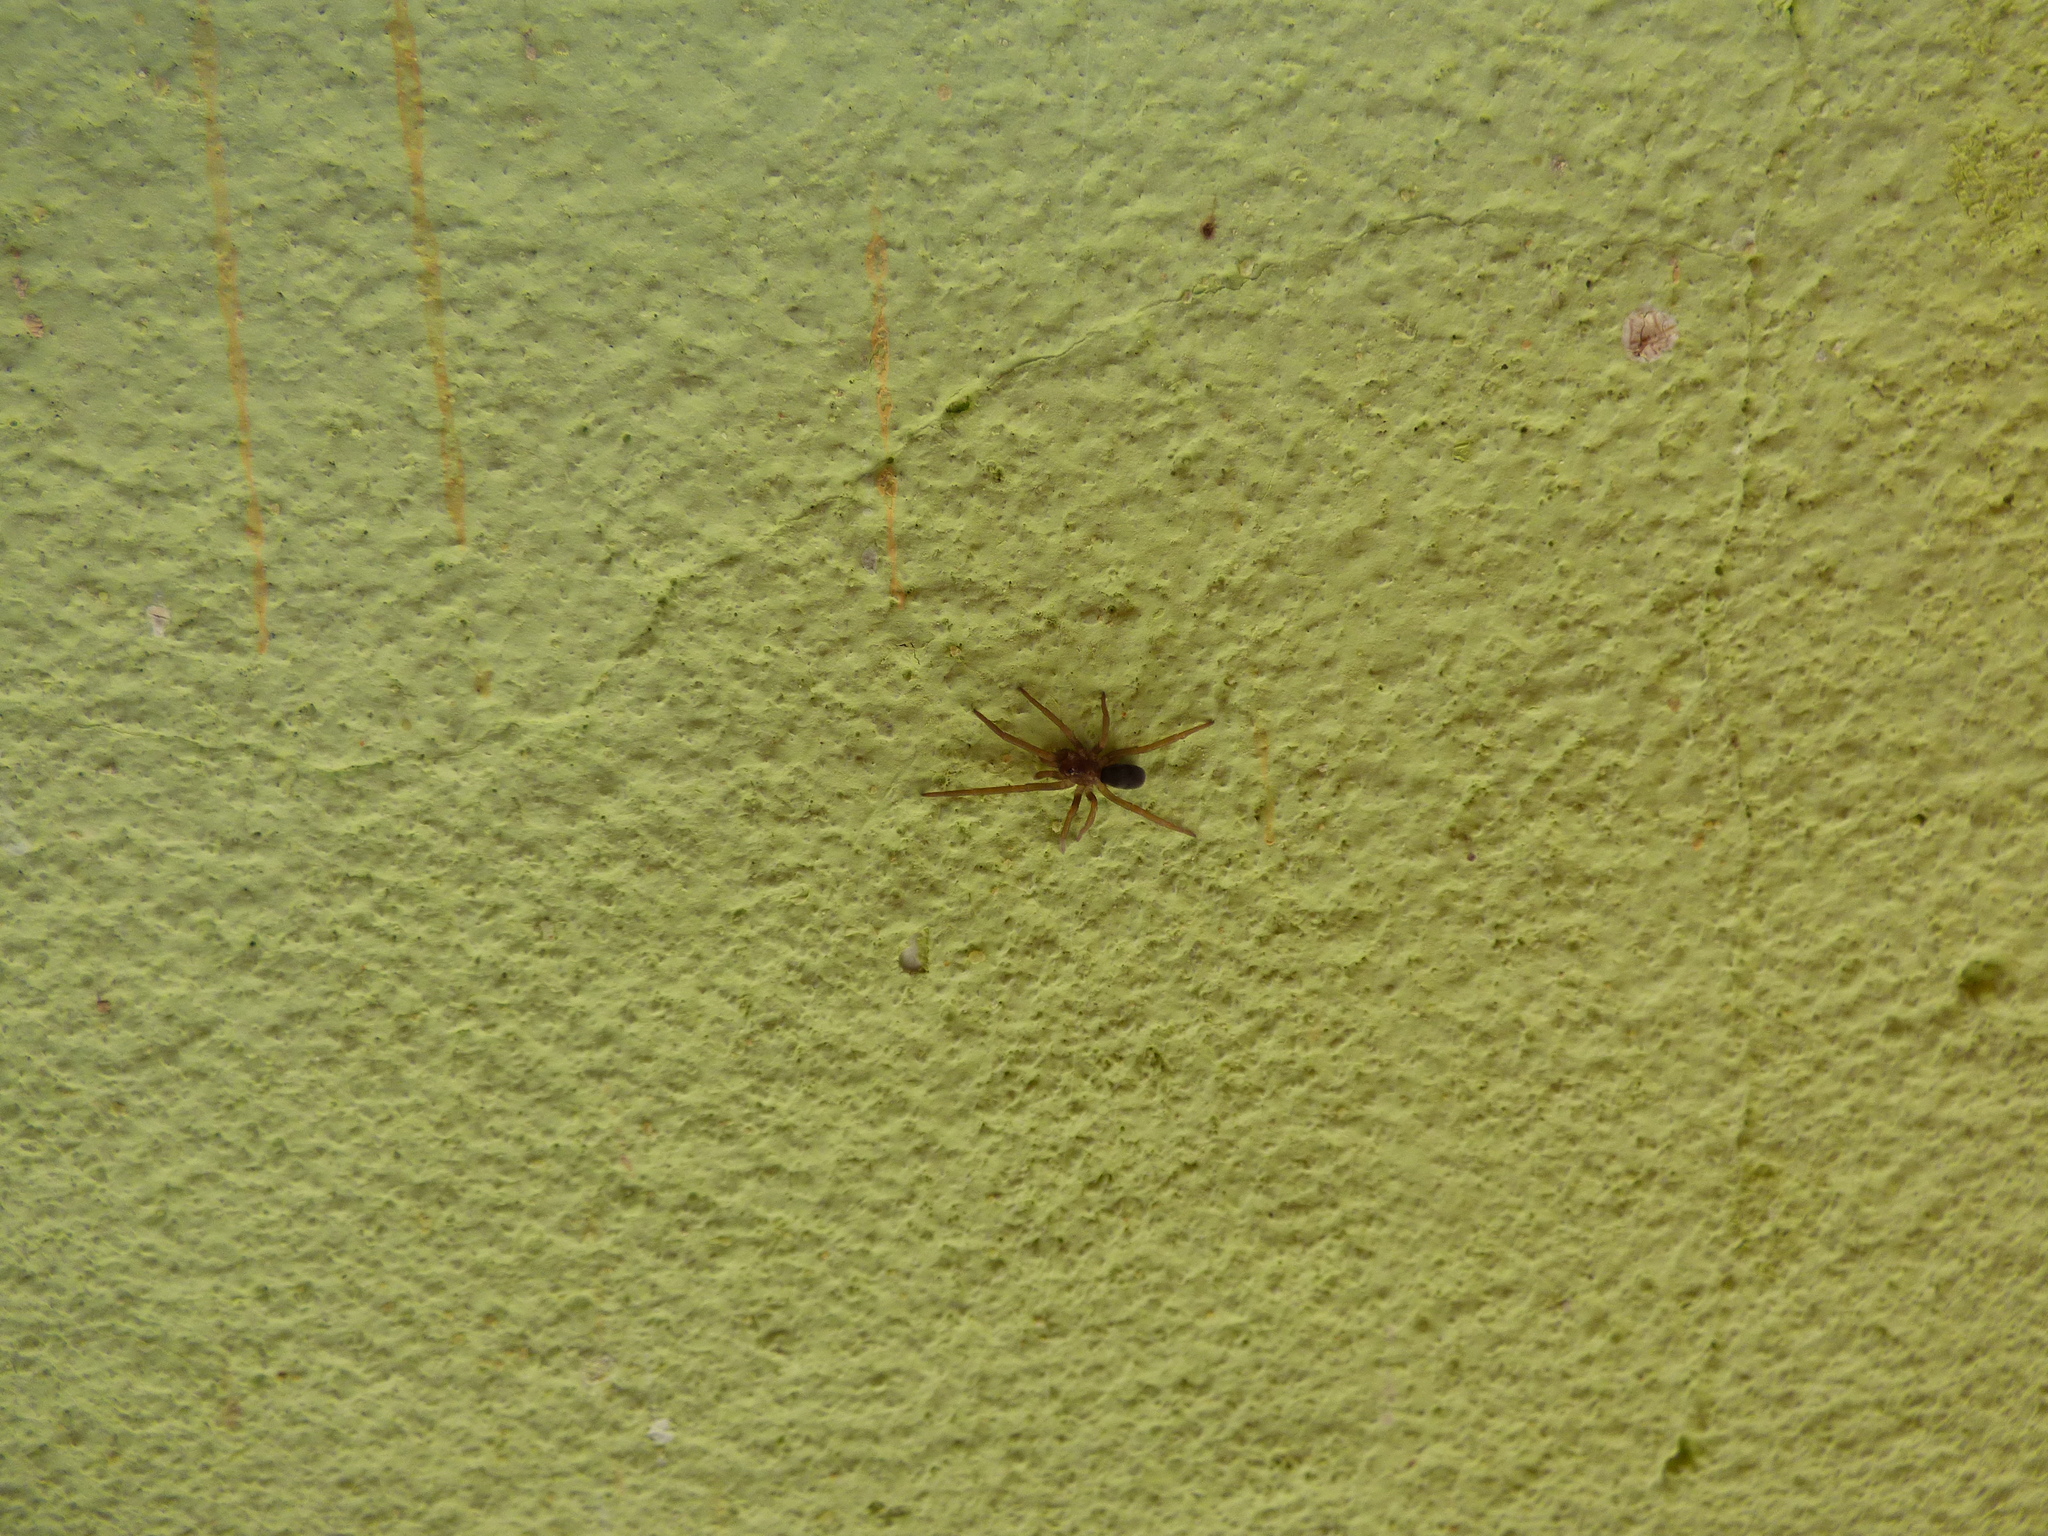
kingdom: Animalia
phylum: Arthropoda
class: Arachnida
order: Araneae
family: Filistatidae
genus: Kukulcania
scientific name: Kukulcania hibernalis
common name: Crevice weaver
